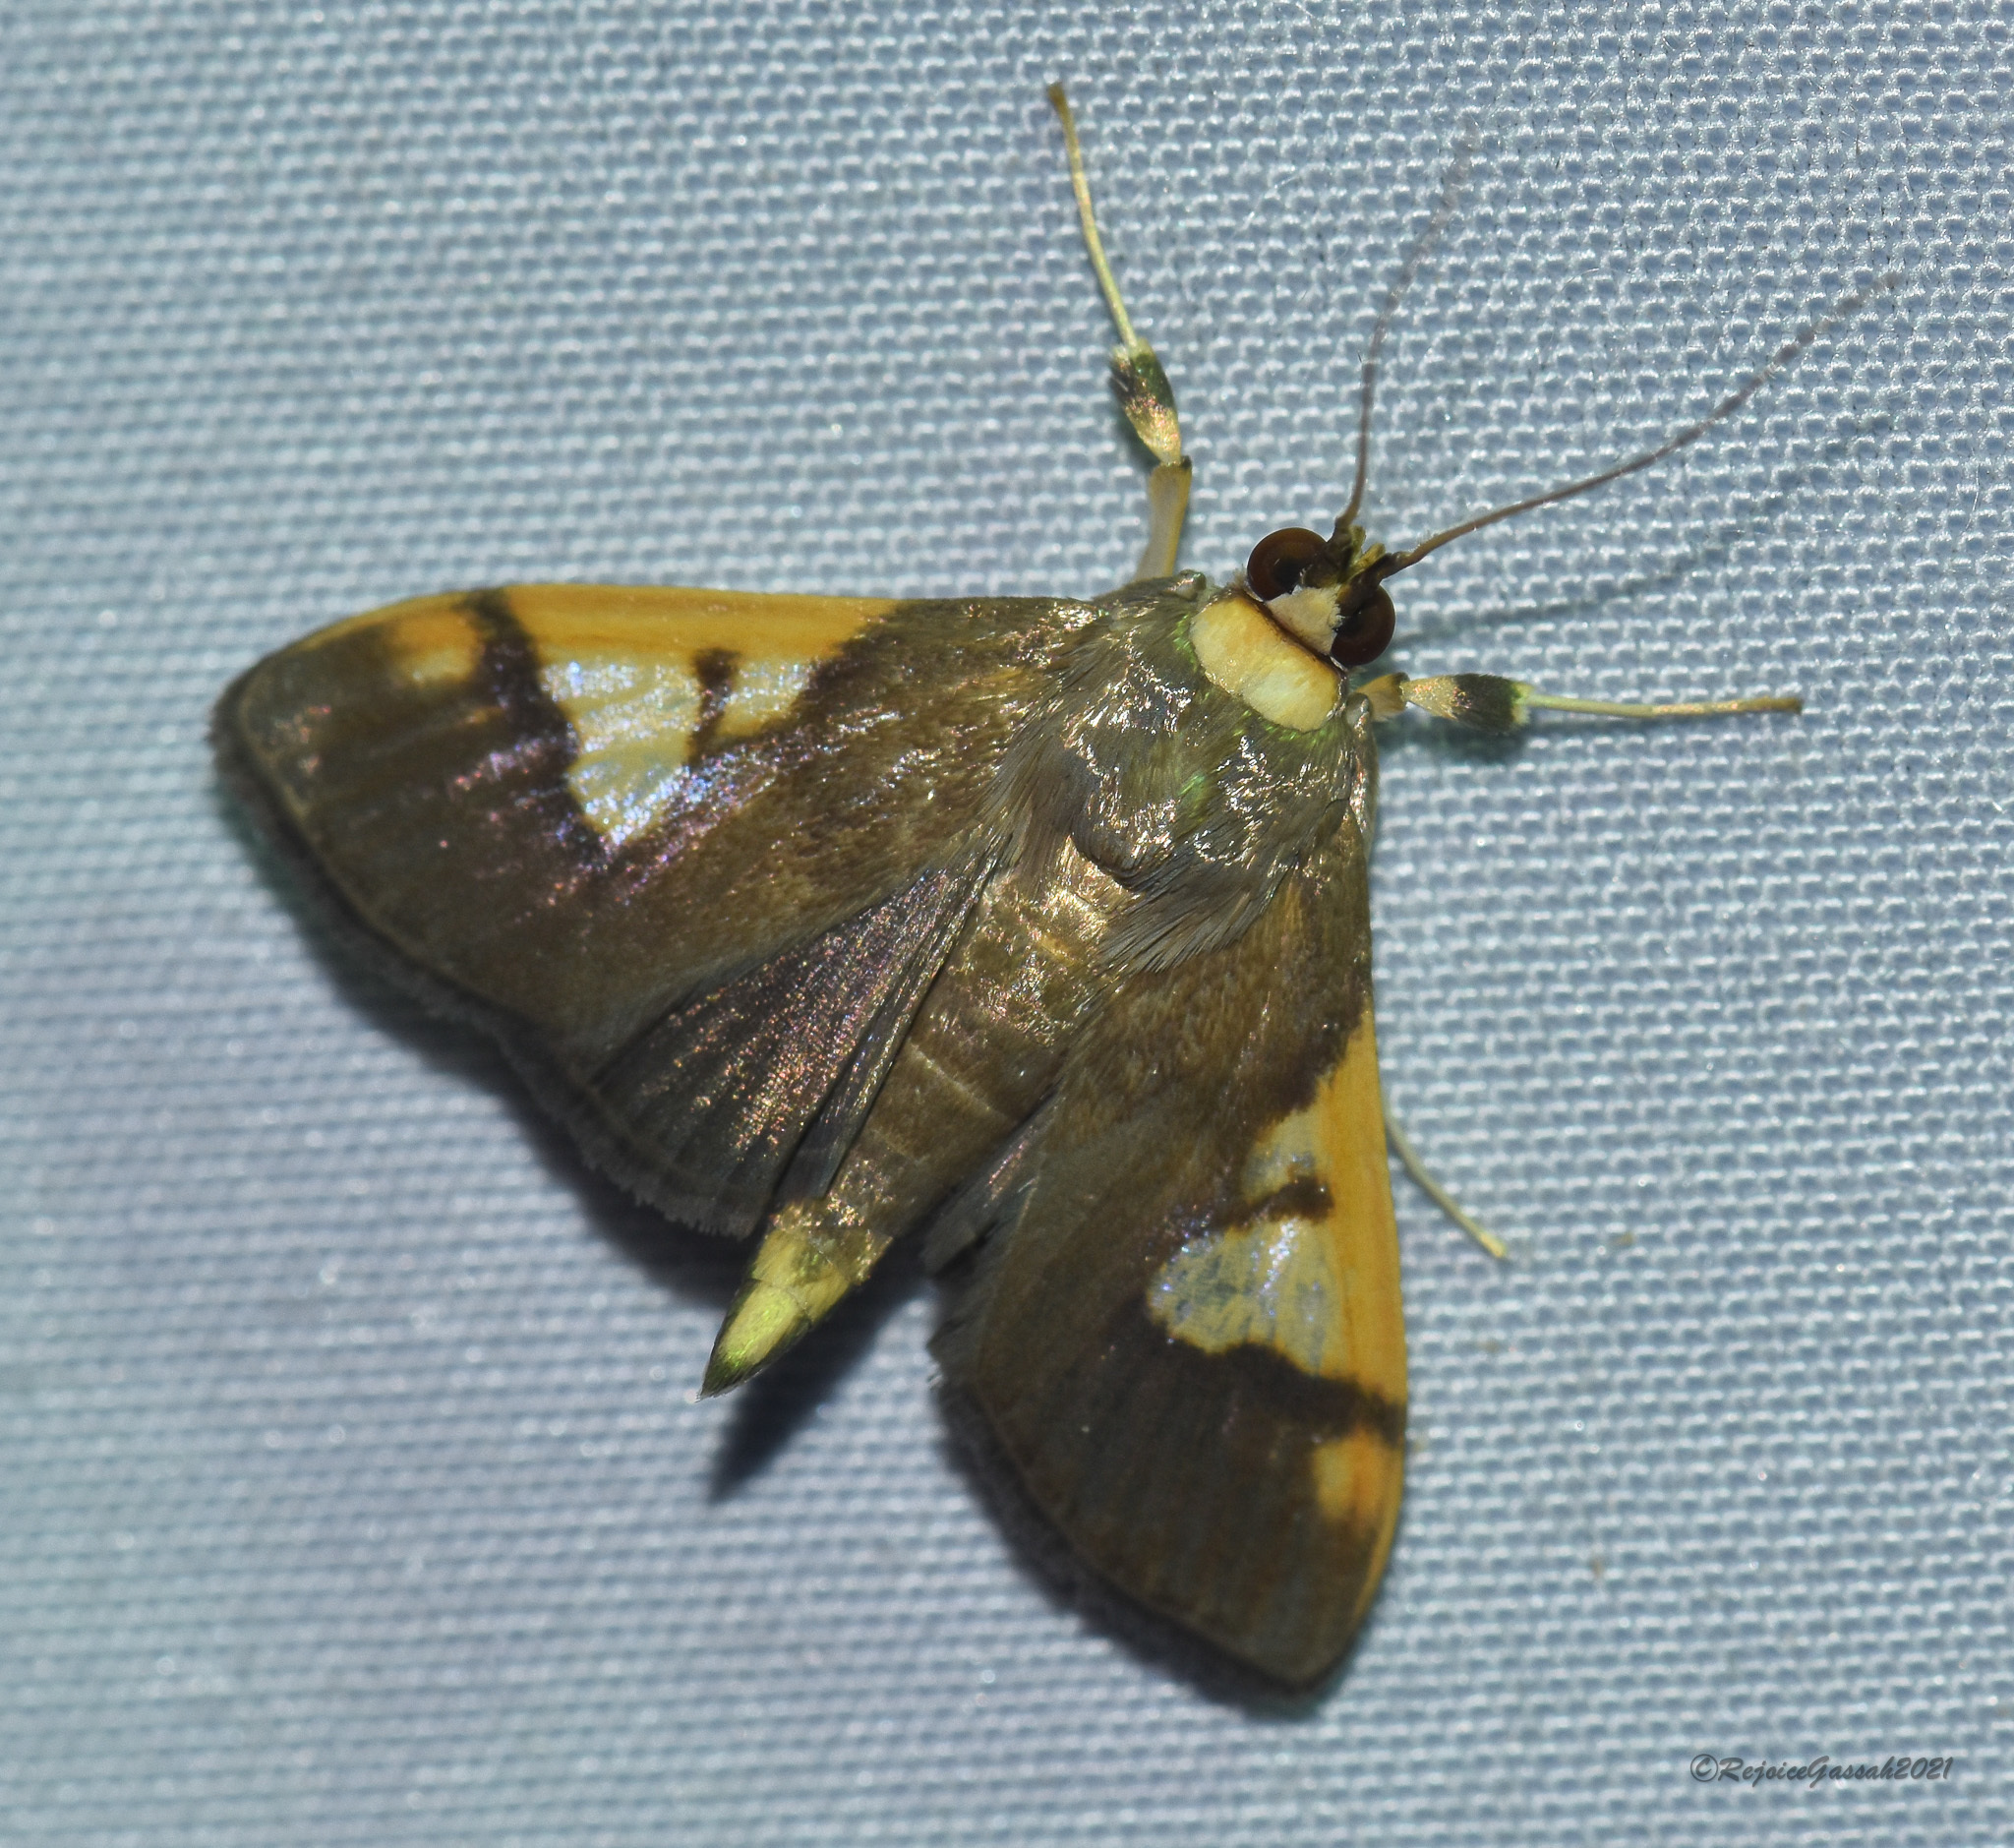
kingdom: Animalia
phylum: Arthropoda
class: Insecta
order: Lepidoptera
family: Crambidae
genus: Ulopeza
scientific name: Ulopeza idyalis
